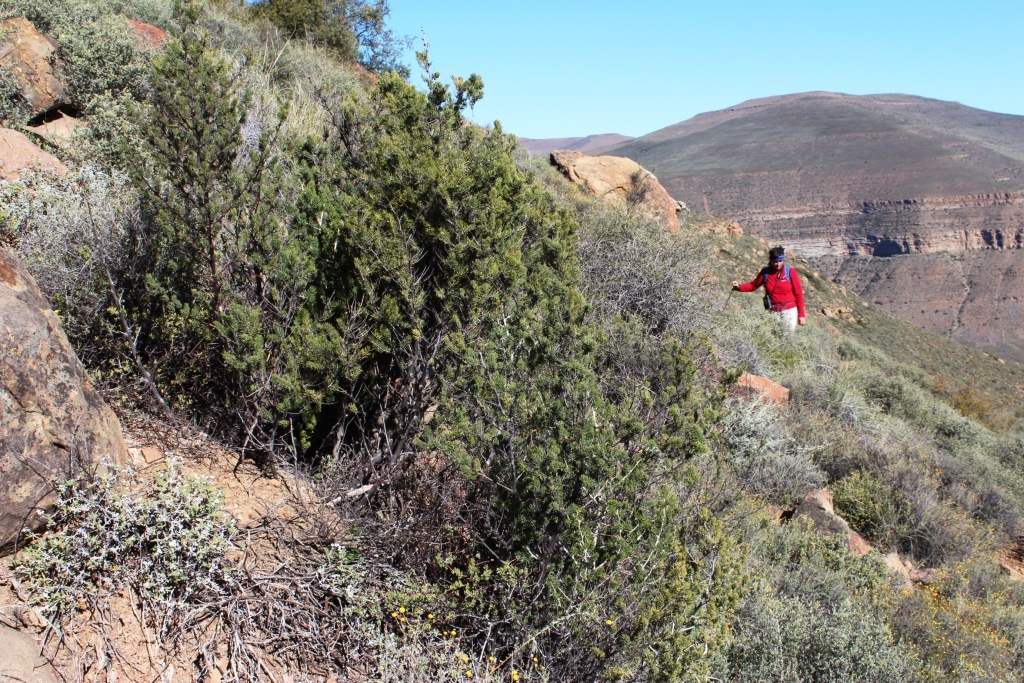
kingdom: Plantae
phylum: Tracheophyta
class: Liliopsida
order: Asparagales
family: Asparagaceae
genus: Asparagus
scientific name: Asparagus mucronatus
